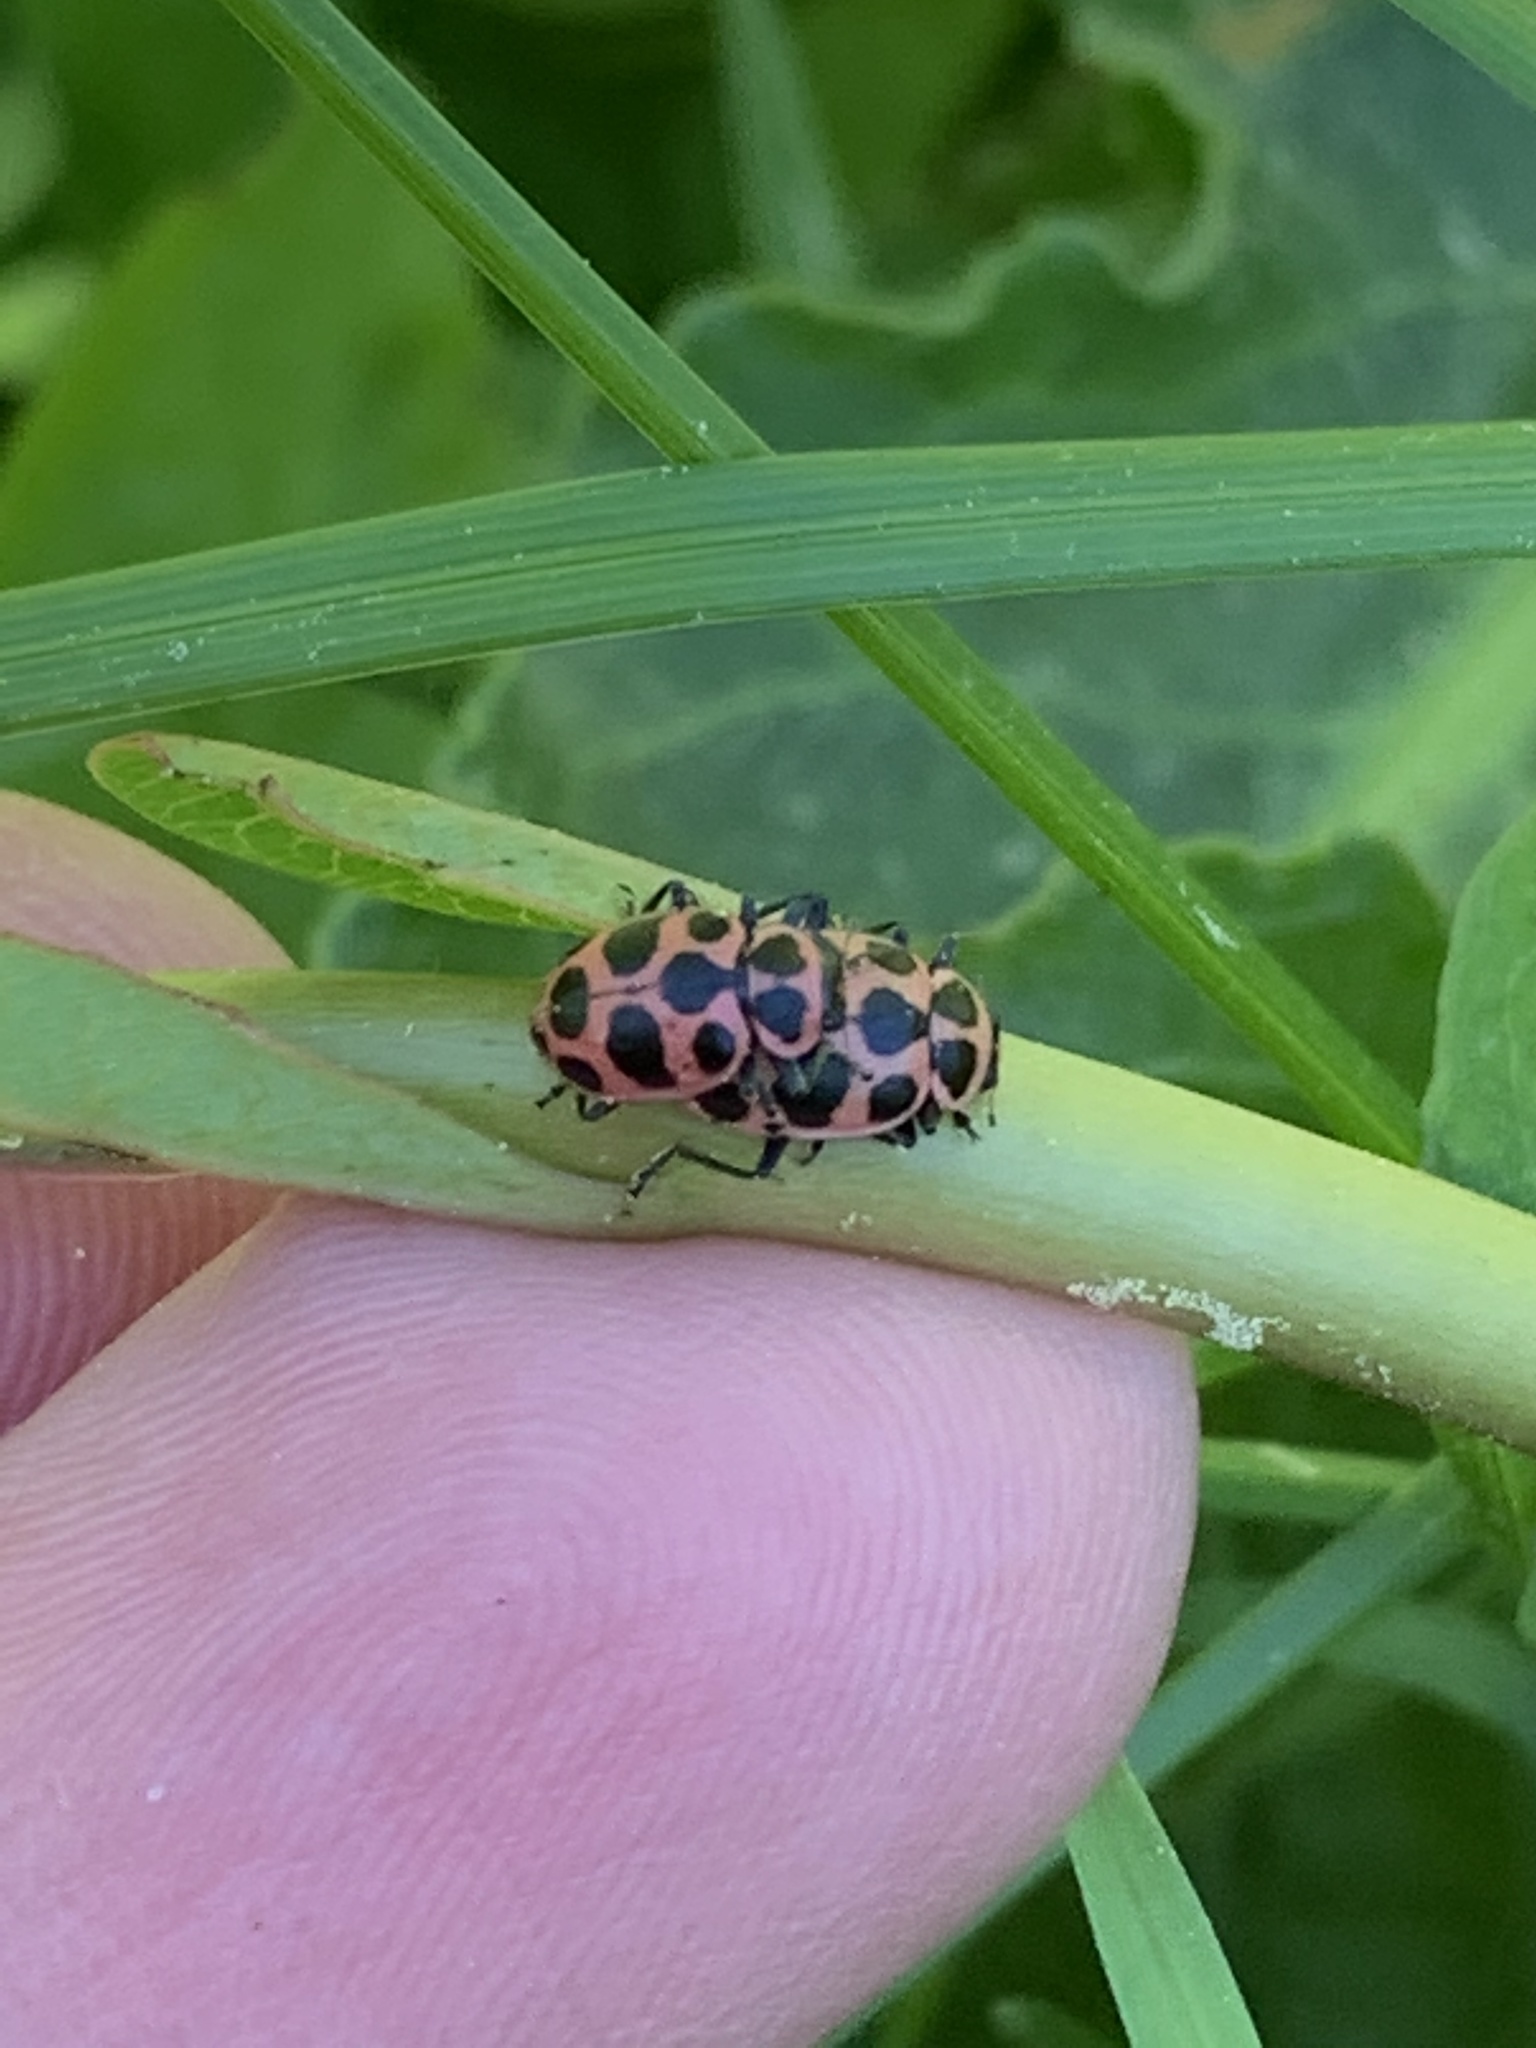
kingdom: Animalia
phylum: Arthropoda
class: Insecta
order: Coleoptera
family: Coccinellidae
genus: Coleomegilla
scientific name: Coleomegilla maculata
